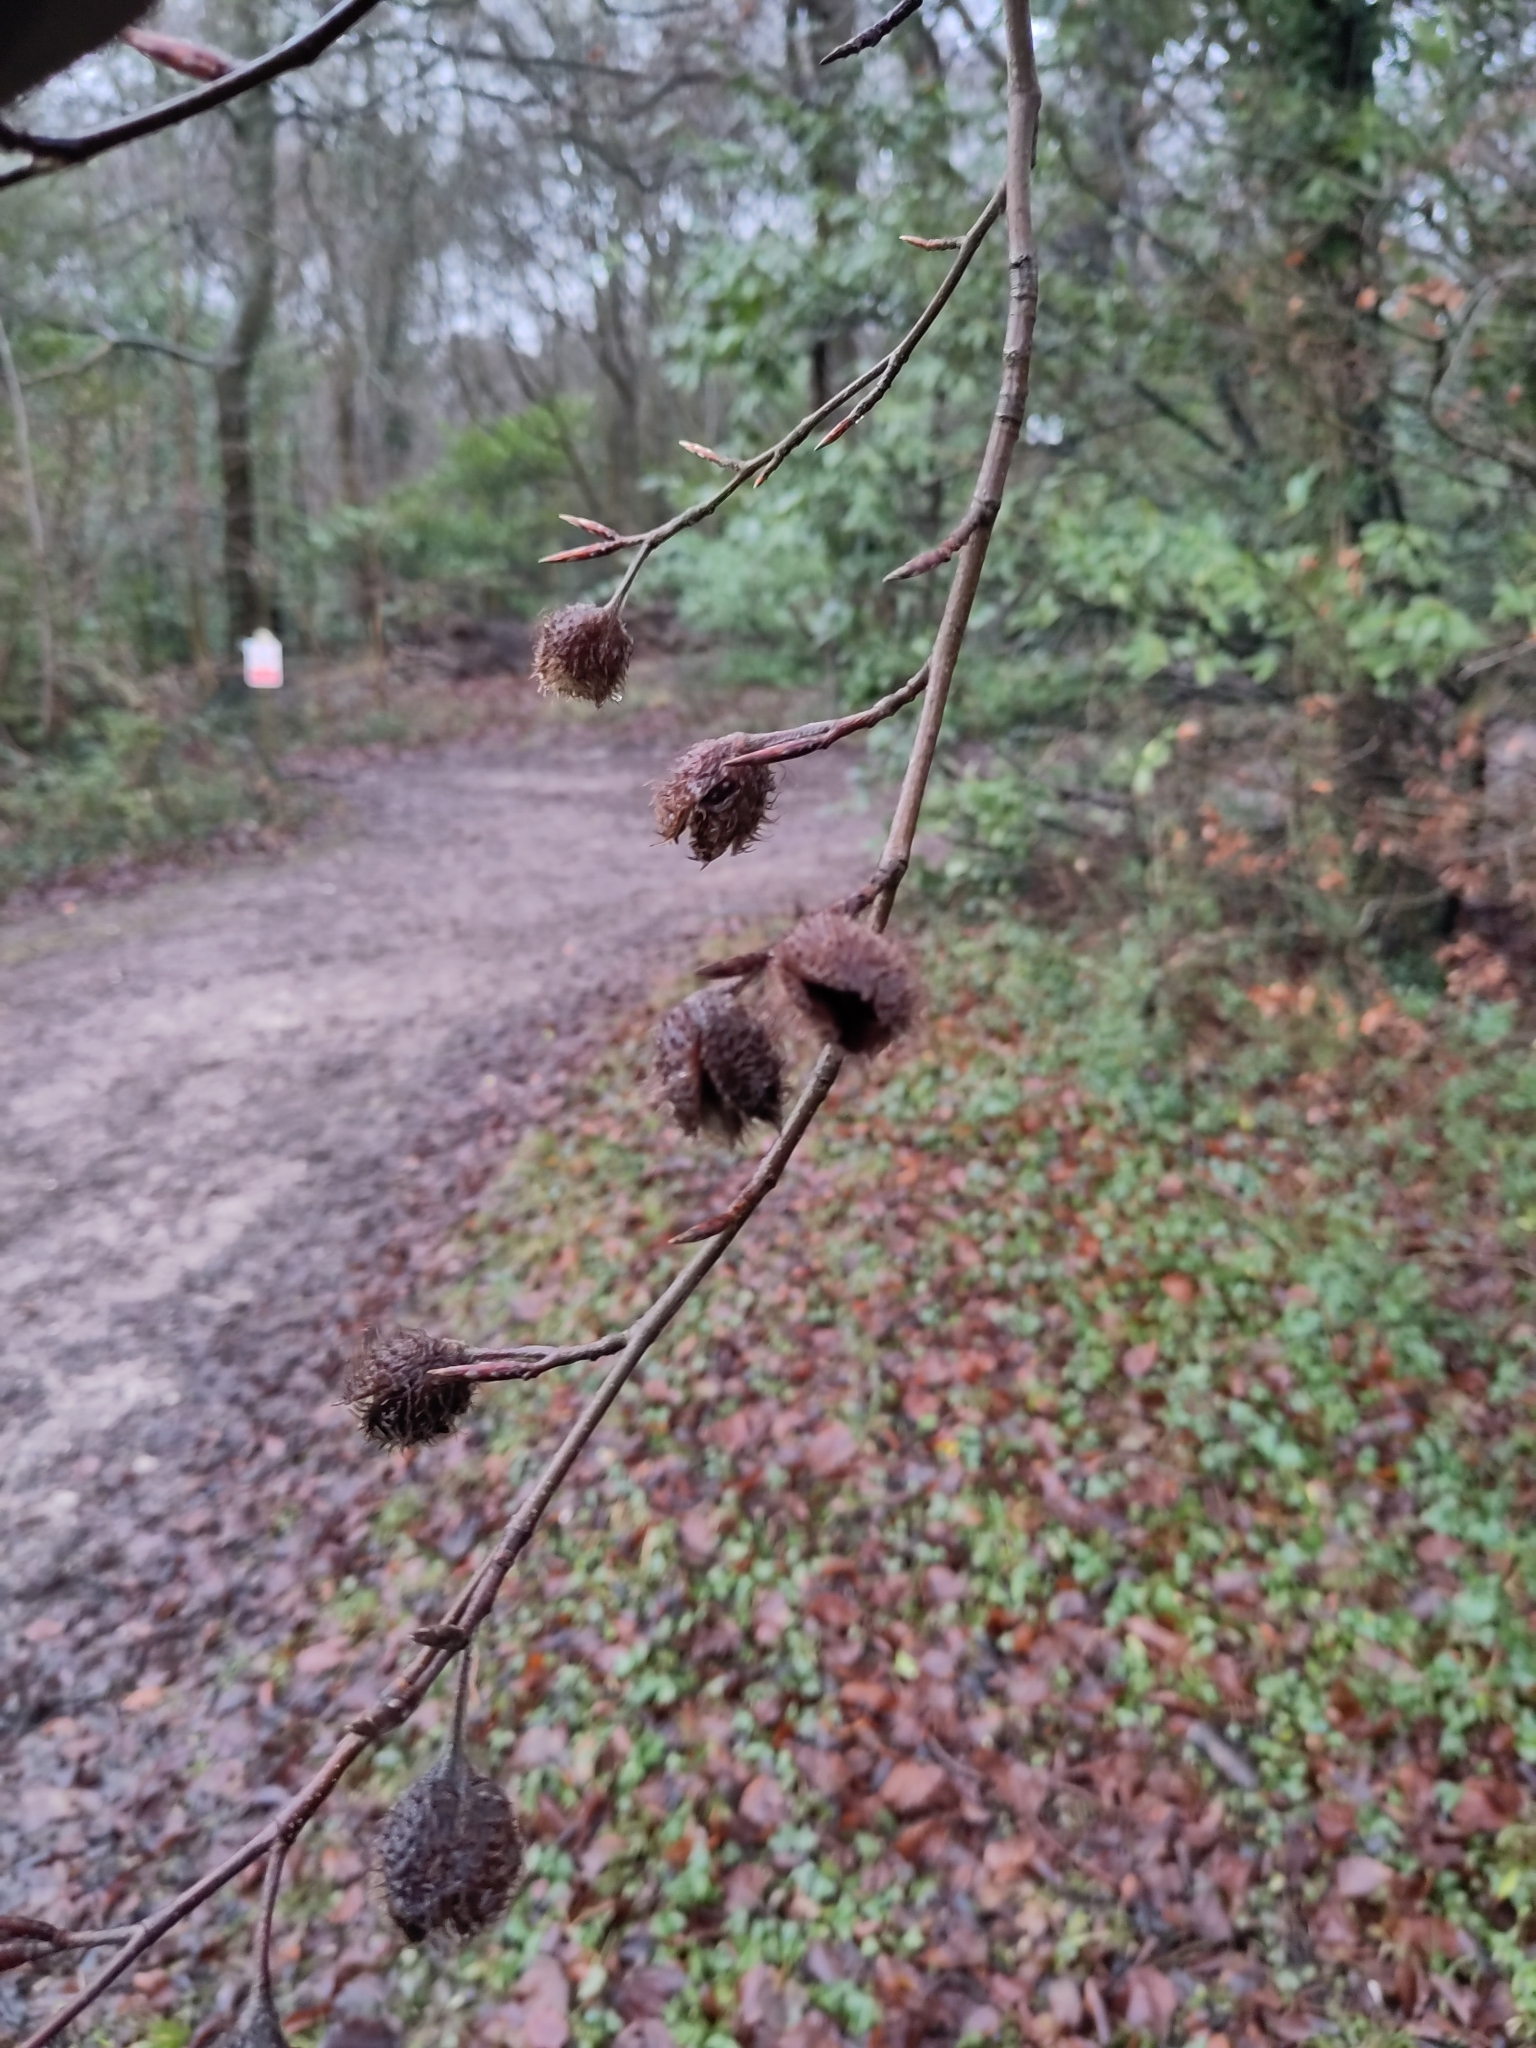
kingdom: Plantae
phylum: Tracheophyta
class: Magnoliopsida
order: Fagales
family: Fagaceae
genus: Fagus
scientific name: Fagus sylvatica
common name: Beech
